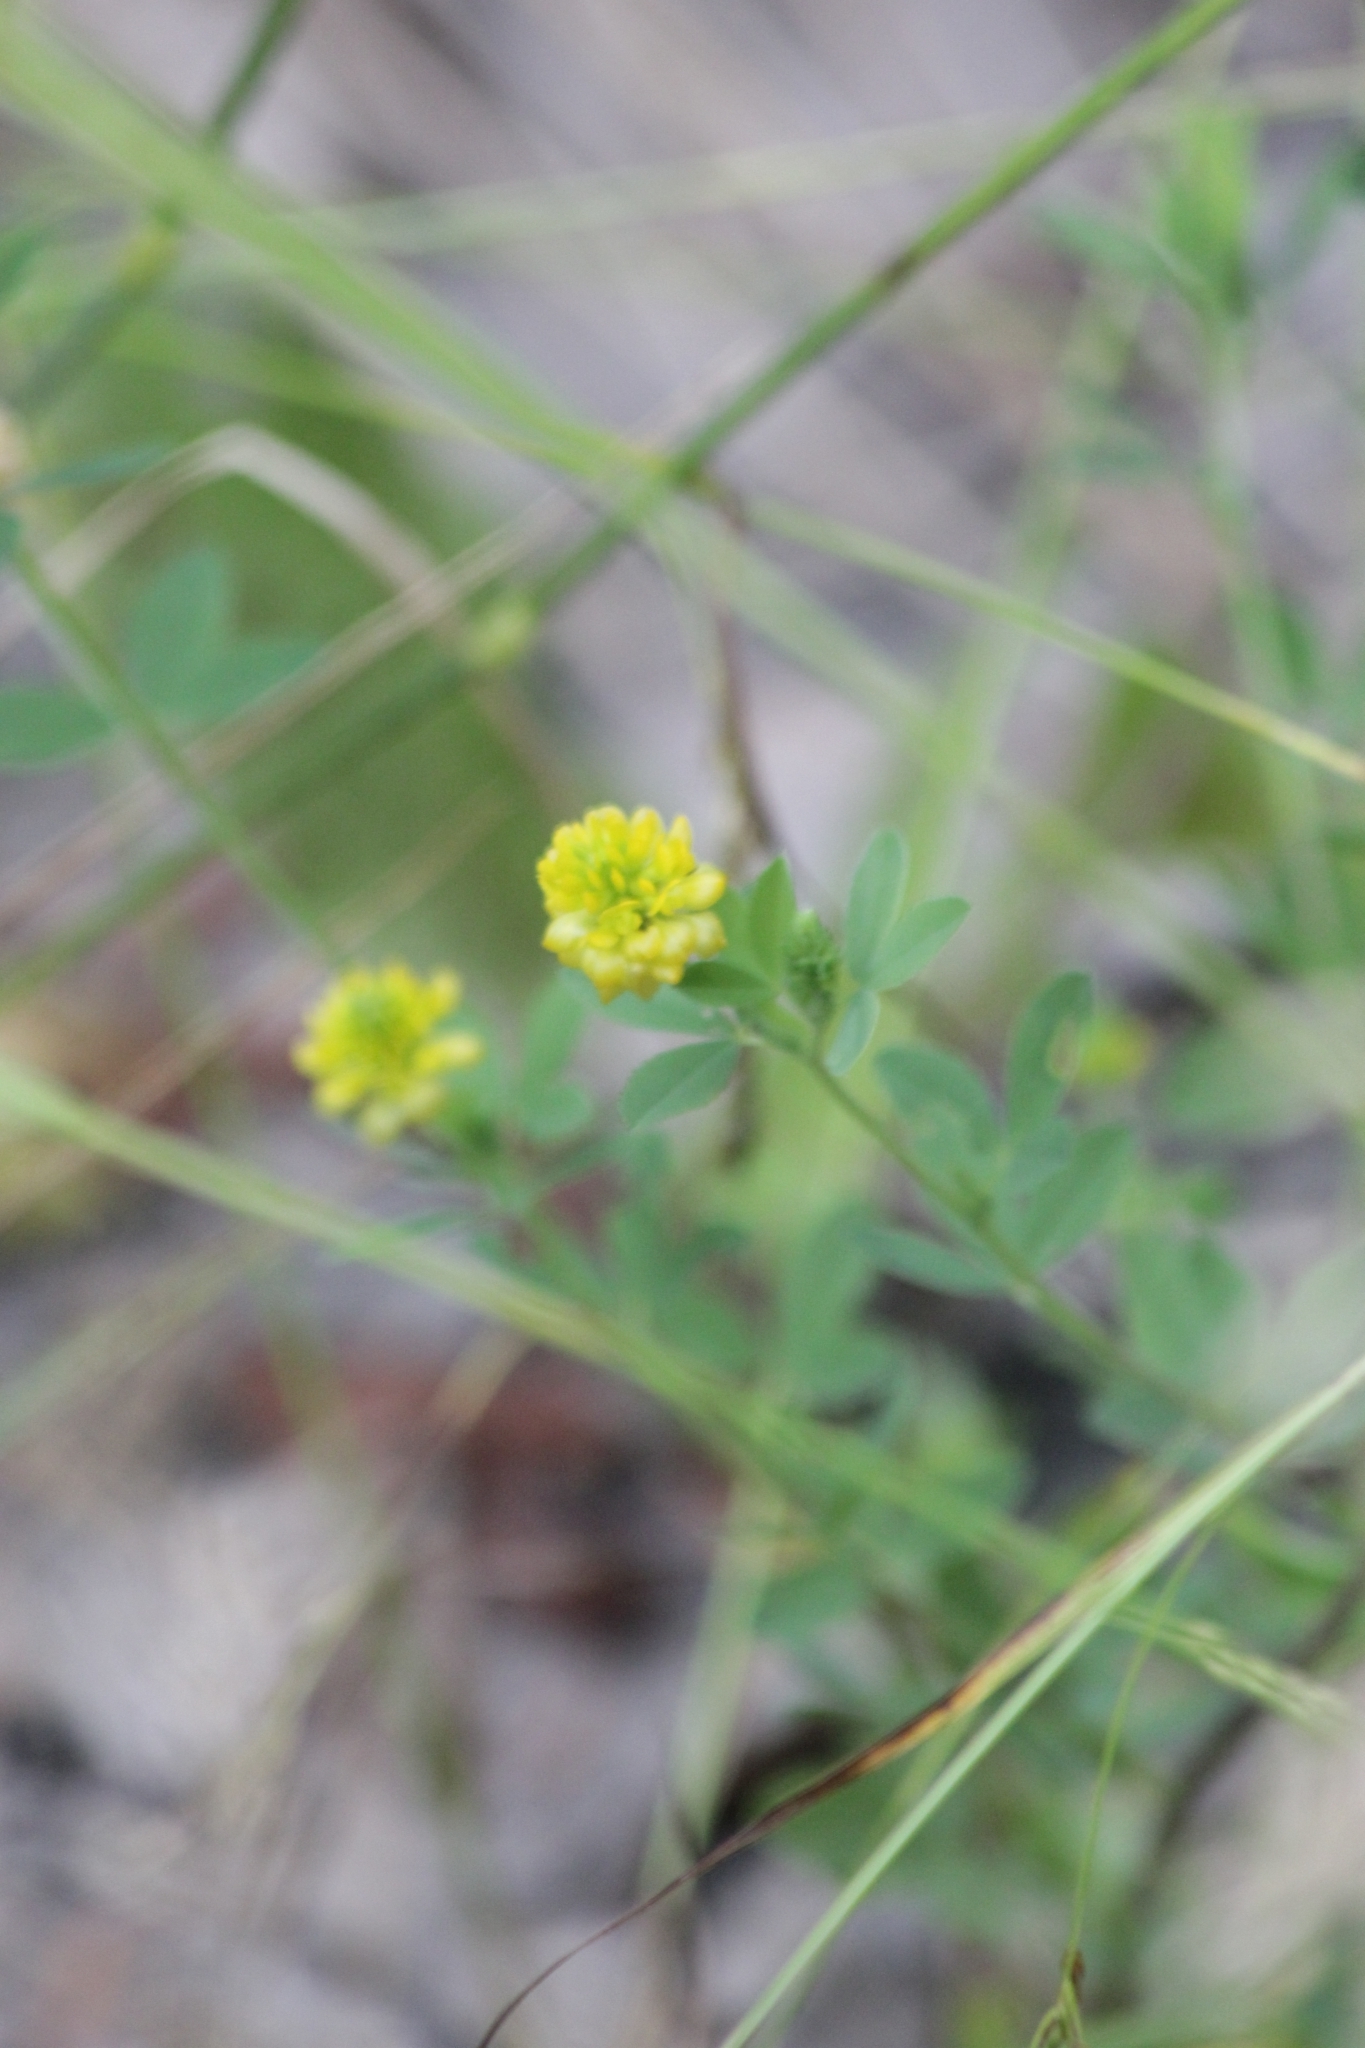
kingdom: Plantae
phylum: Tracheophyta
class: Magnoliopsida
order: Fabales
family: Fabaceae
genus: Trifolium
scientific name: Trifolium aureum
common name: Golden clover
